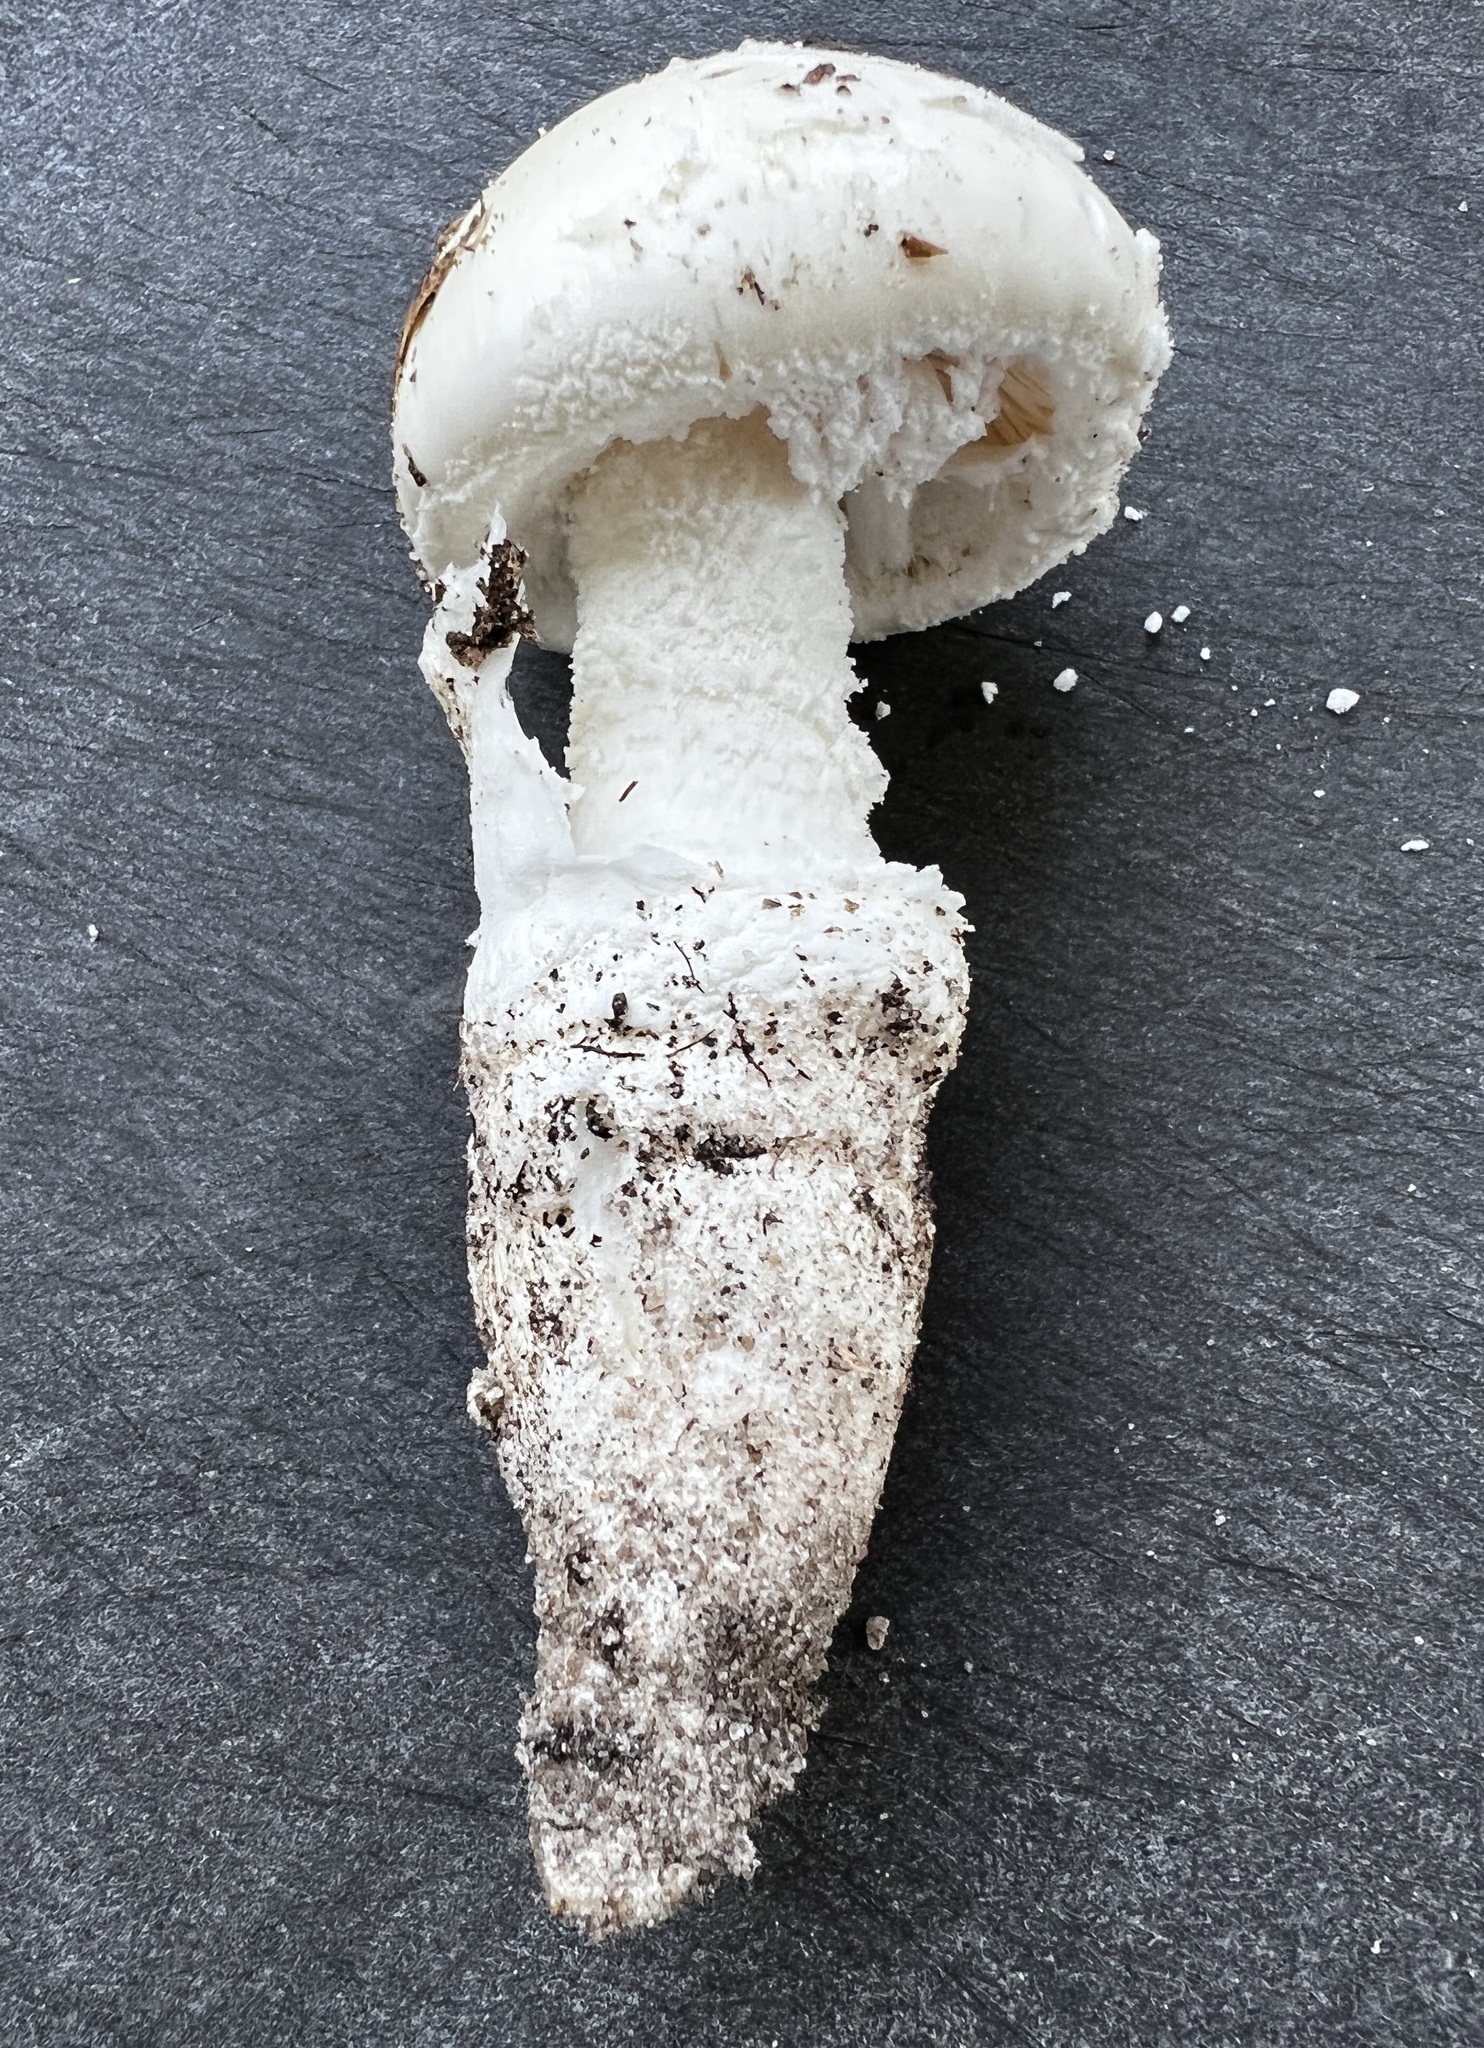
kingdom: Fungi
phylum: Basidiomycota
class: Agaricomycetes
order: Agaricales
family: Amanitaceae
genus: Amanita
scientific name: Amanita roanokensis
